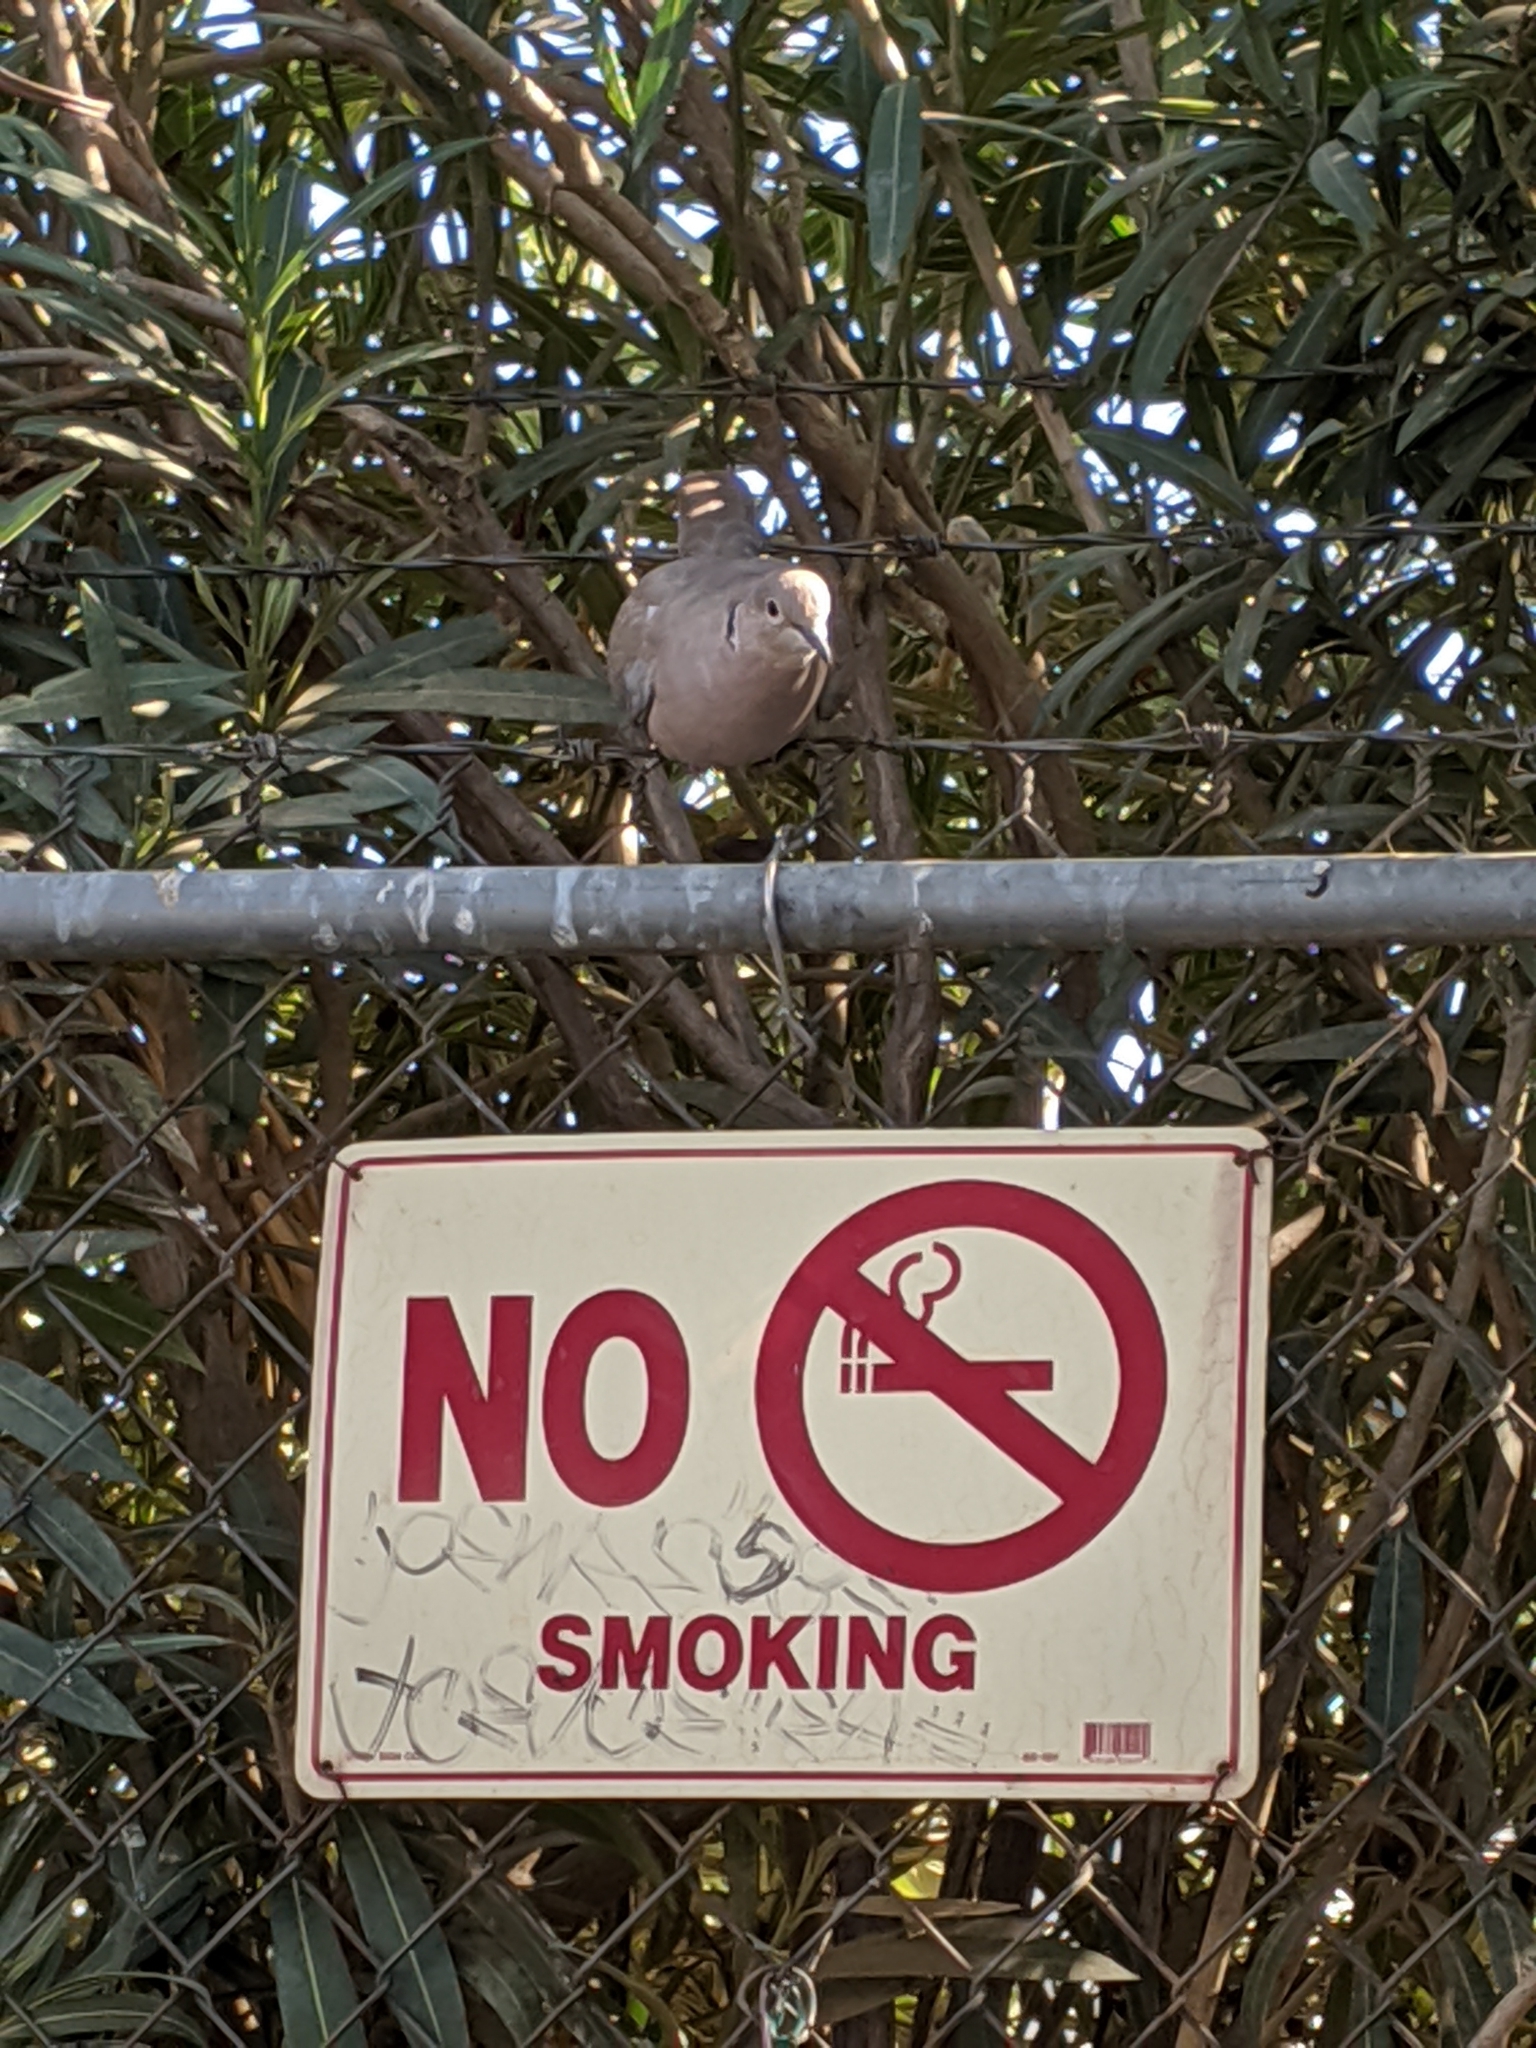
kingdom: Animalia
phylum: Chordata
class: Aves
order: Columbiformes
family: Columbidae
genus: Streptopelia
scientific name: Streptopelia decaocto
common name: Eurasian collared dove
